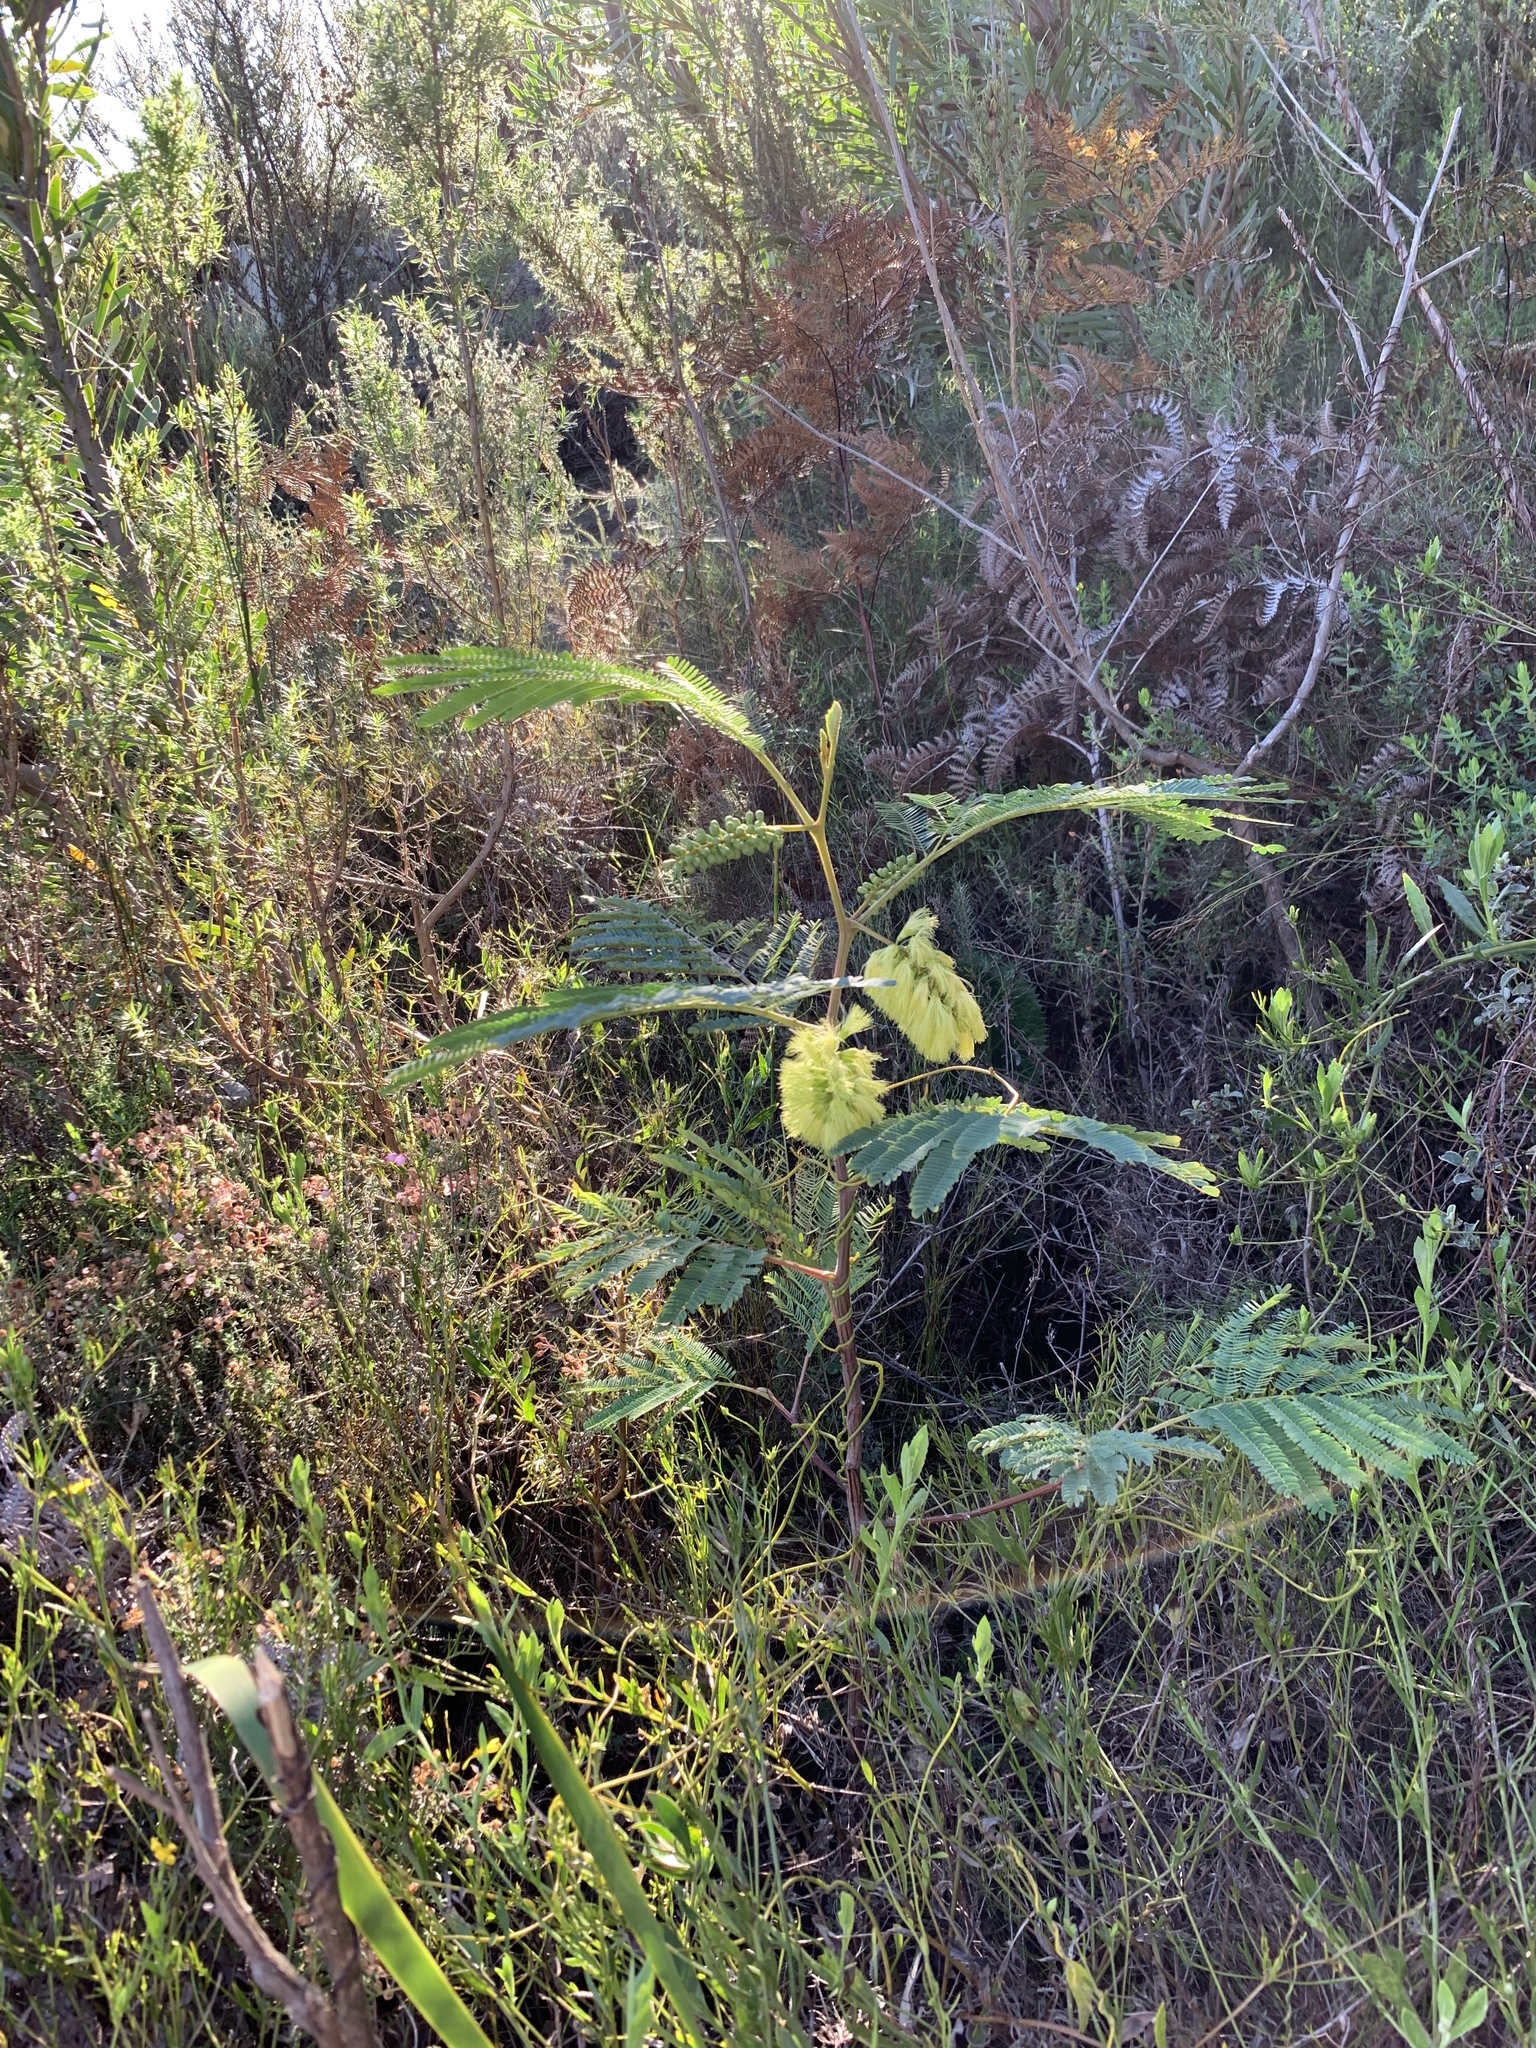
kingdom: Plantae
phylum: Tracheophyta
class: Magnoliopsida
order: Fabales
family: Fabaceae
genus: Paraserianthes
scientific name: Paraserianthes lophantha
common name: Plume albizia
